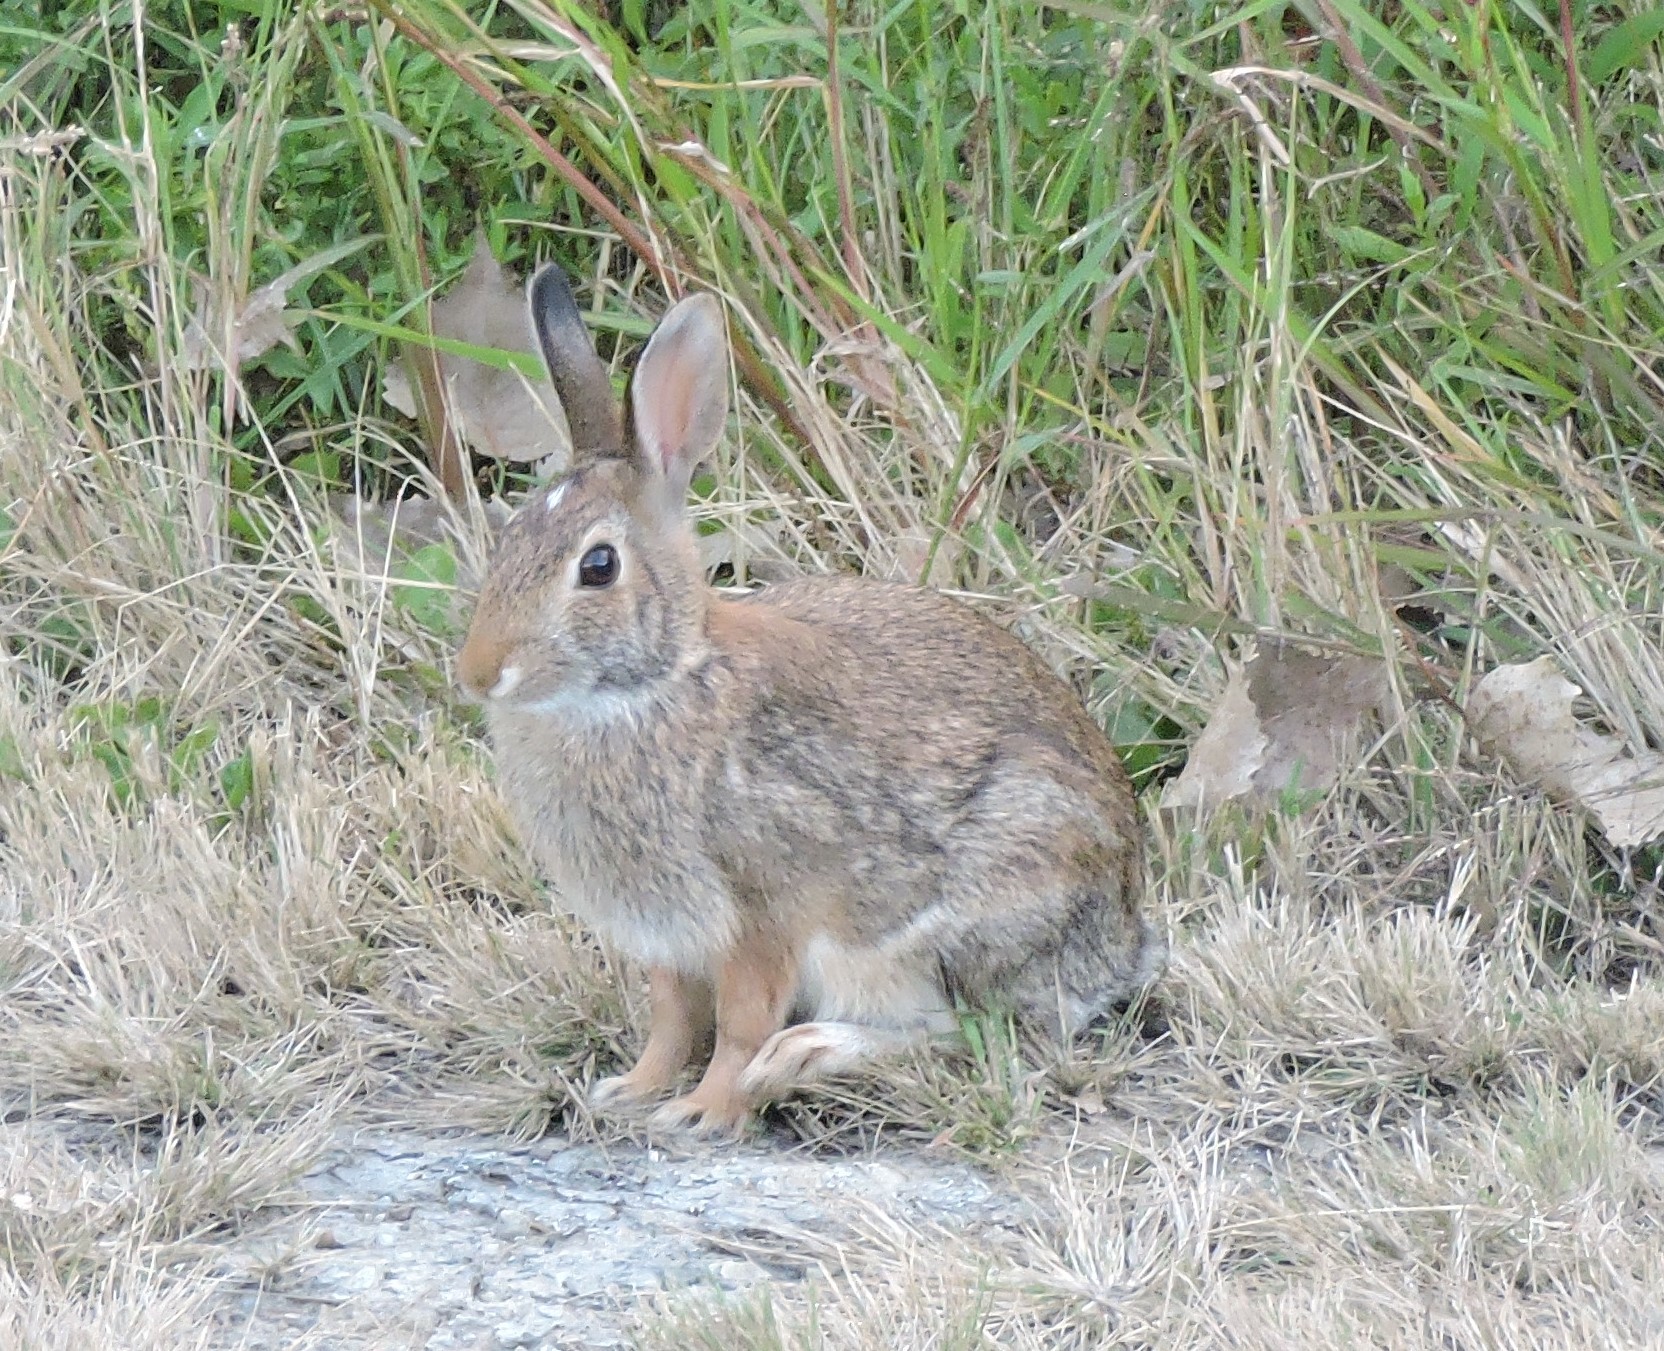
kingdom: Animalia
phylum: Chordata
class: Mammalia
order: Lagomorpha
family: Leporidae
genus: Sylvilagus
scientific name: Sylvilagus floridanus
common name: Eastern cottontail
